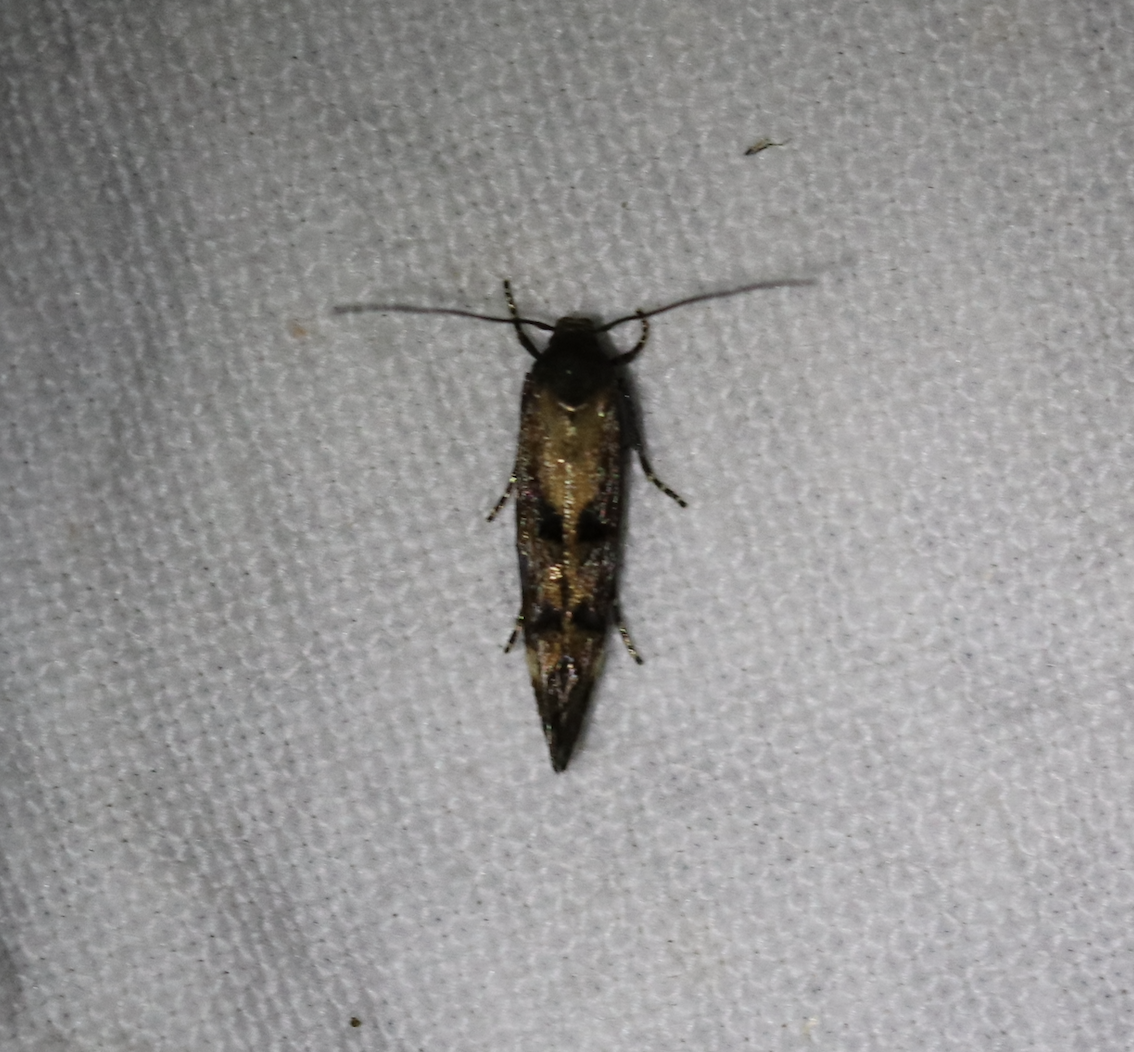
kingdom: Animalia
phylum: Arthropoda
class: Insecta
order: Lepidoptera
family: Momphidae
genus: Mompha
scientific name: Mompha idaei
